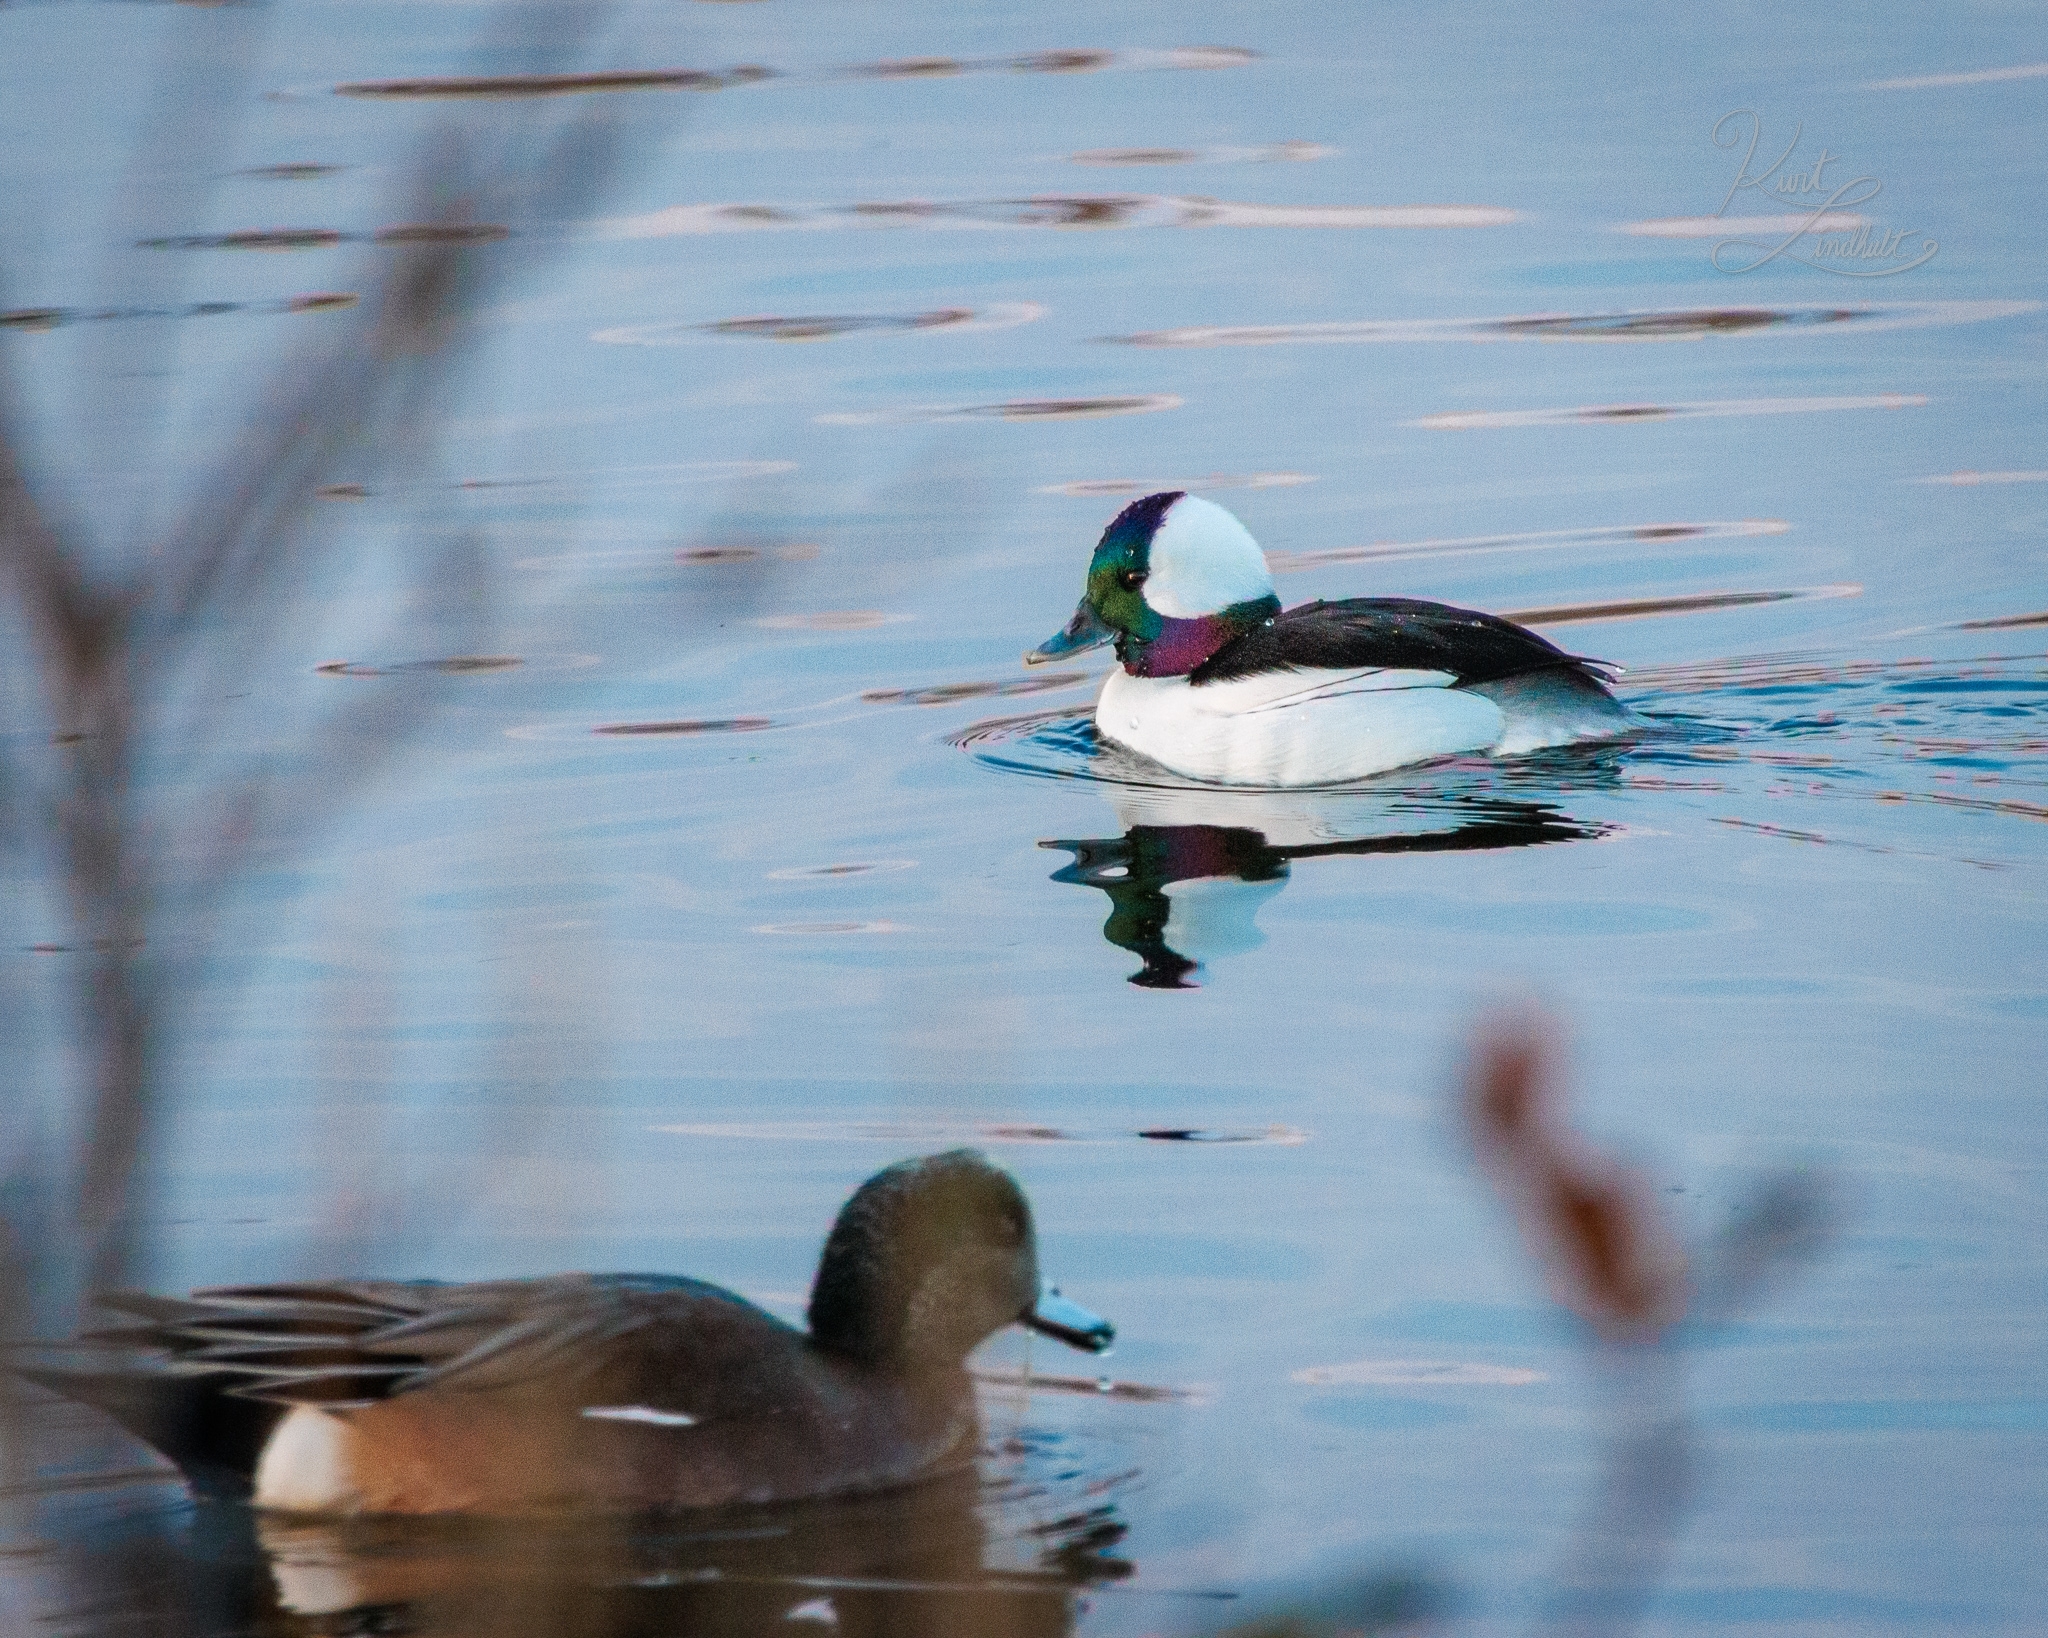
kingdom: Animalia
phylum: Chordata
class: Aves
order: Anseriformes
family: Anatidae
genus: Bucephala
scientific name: Bucephala albeola
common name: Bufflehead
